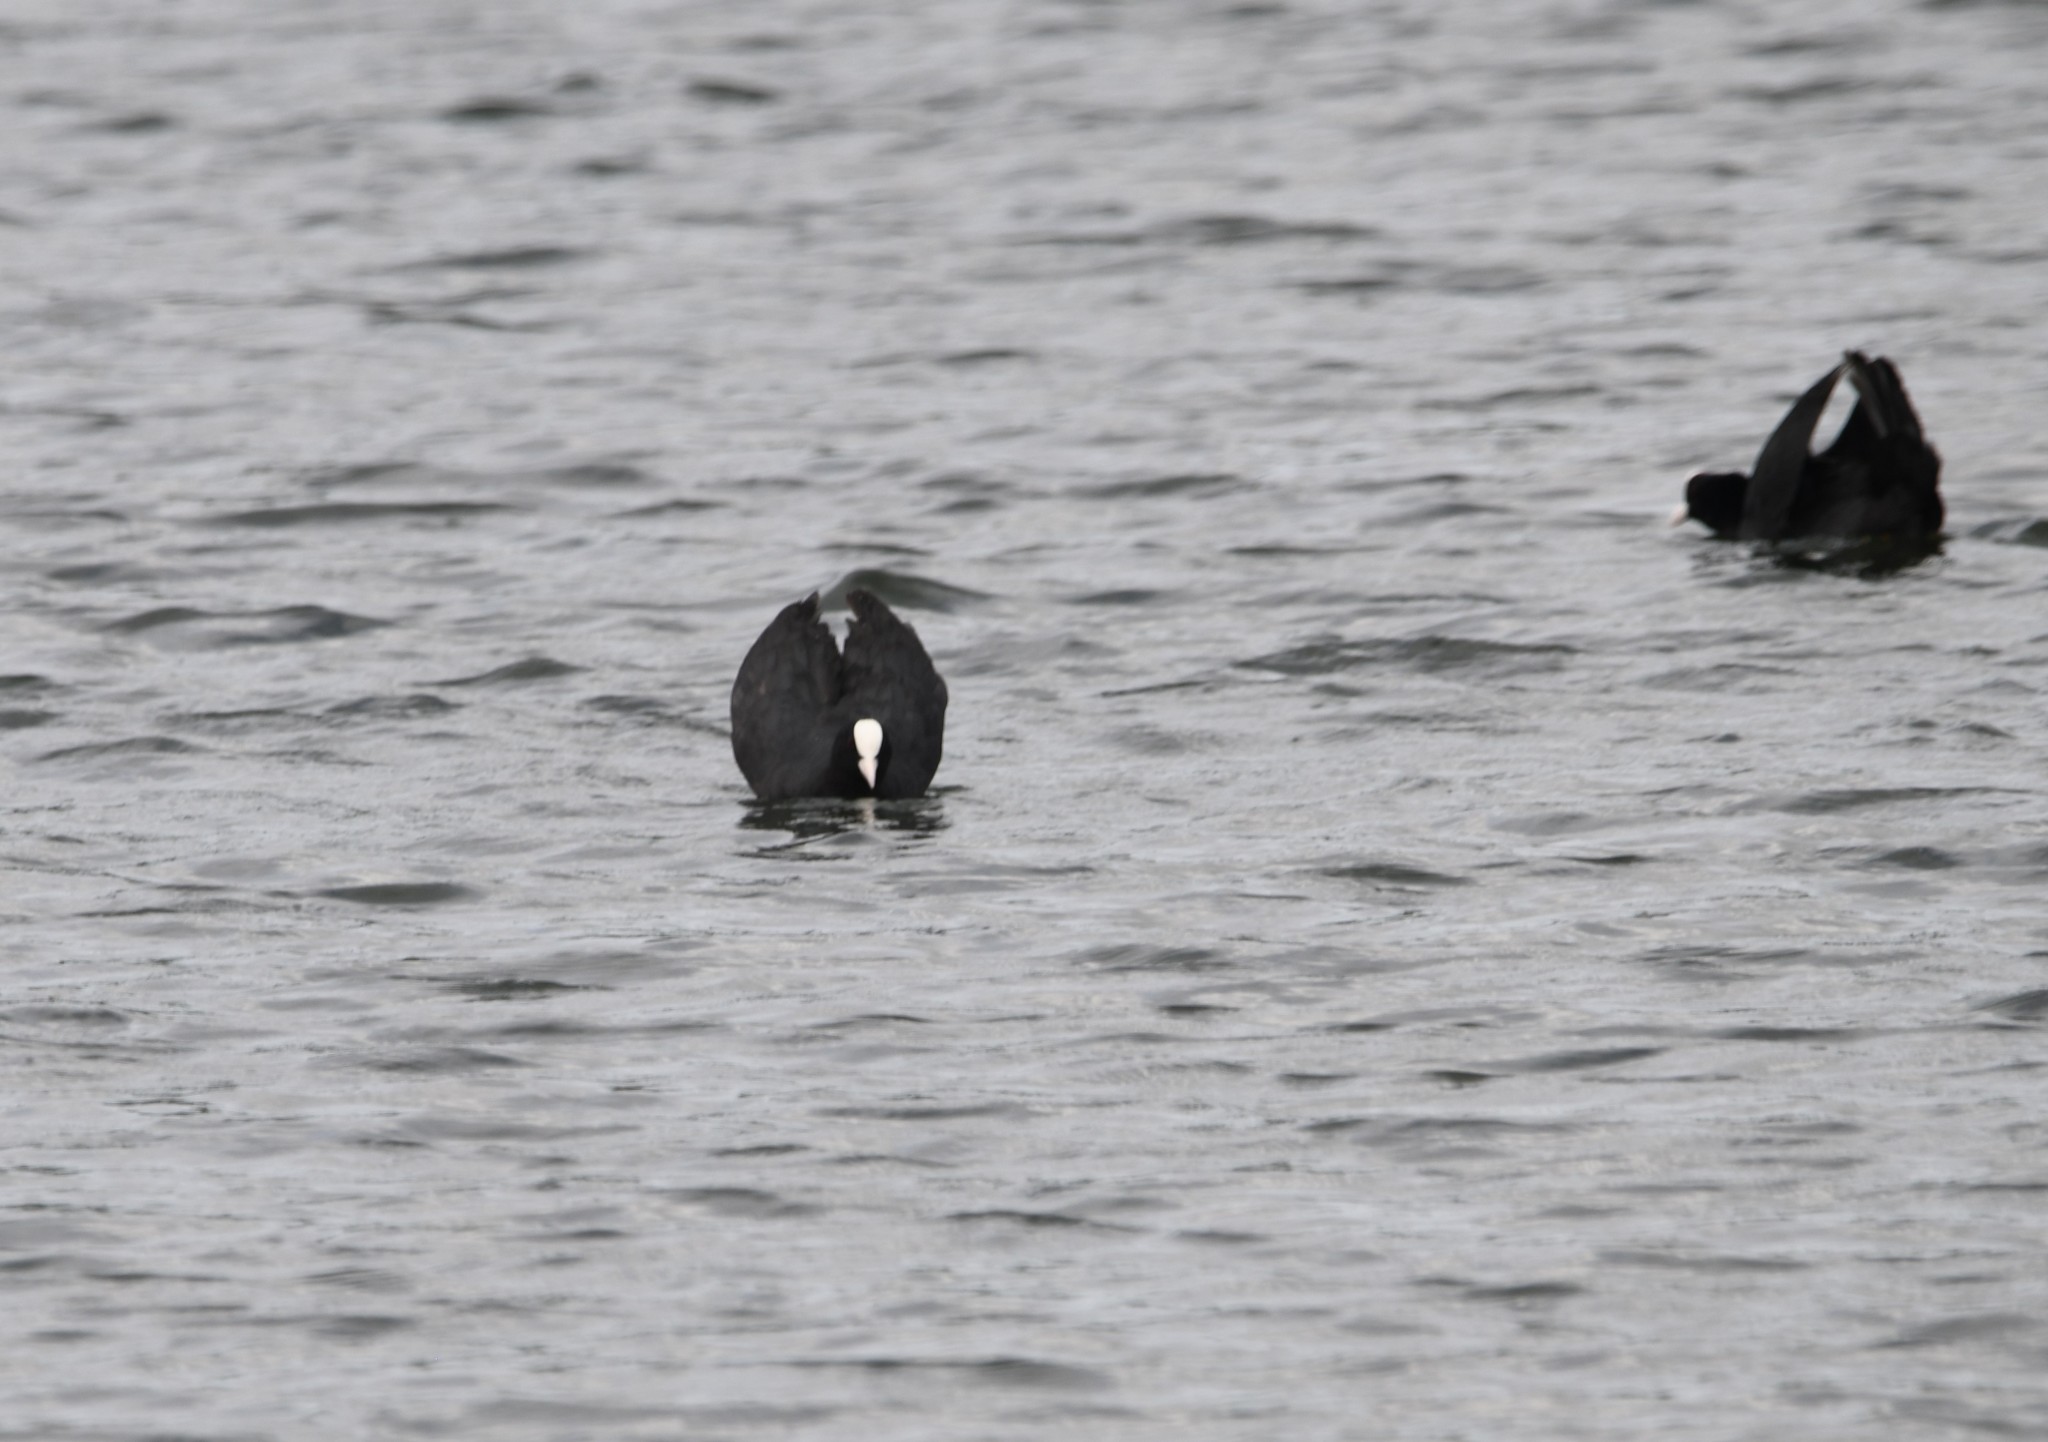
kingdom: Animalia
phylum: Chordata
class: Aves
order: Gruiformes
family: Rallidae
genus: Fulica
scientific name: Fulica atra
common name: Eurasian coot
